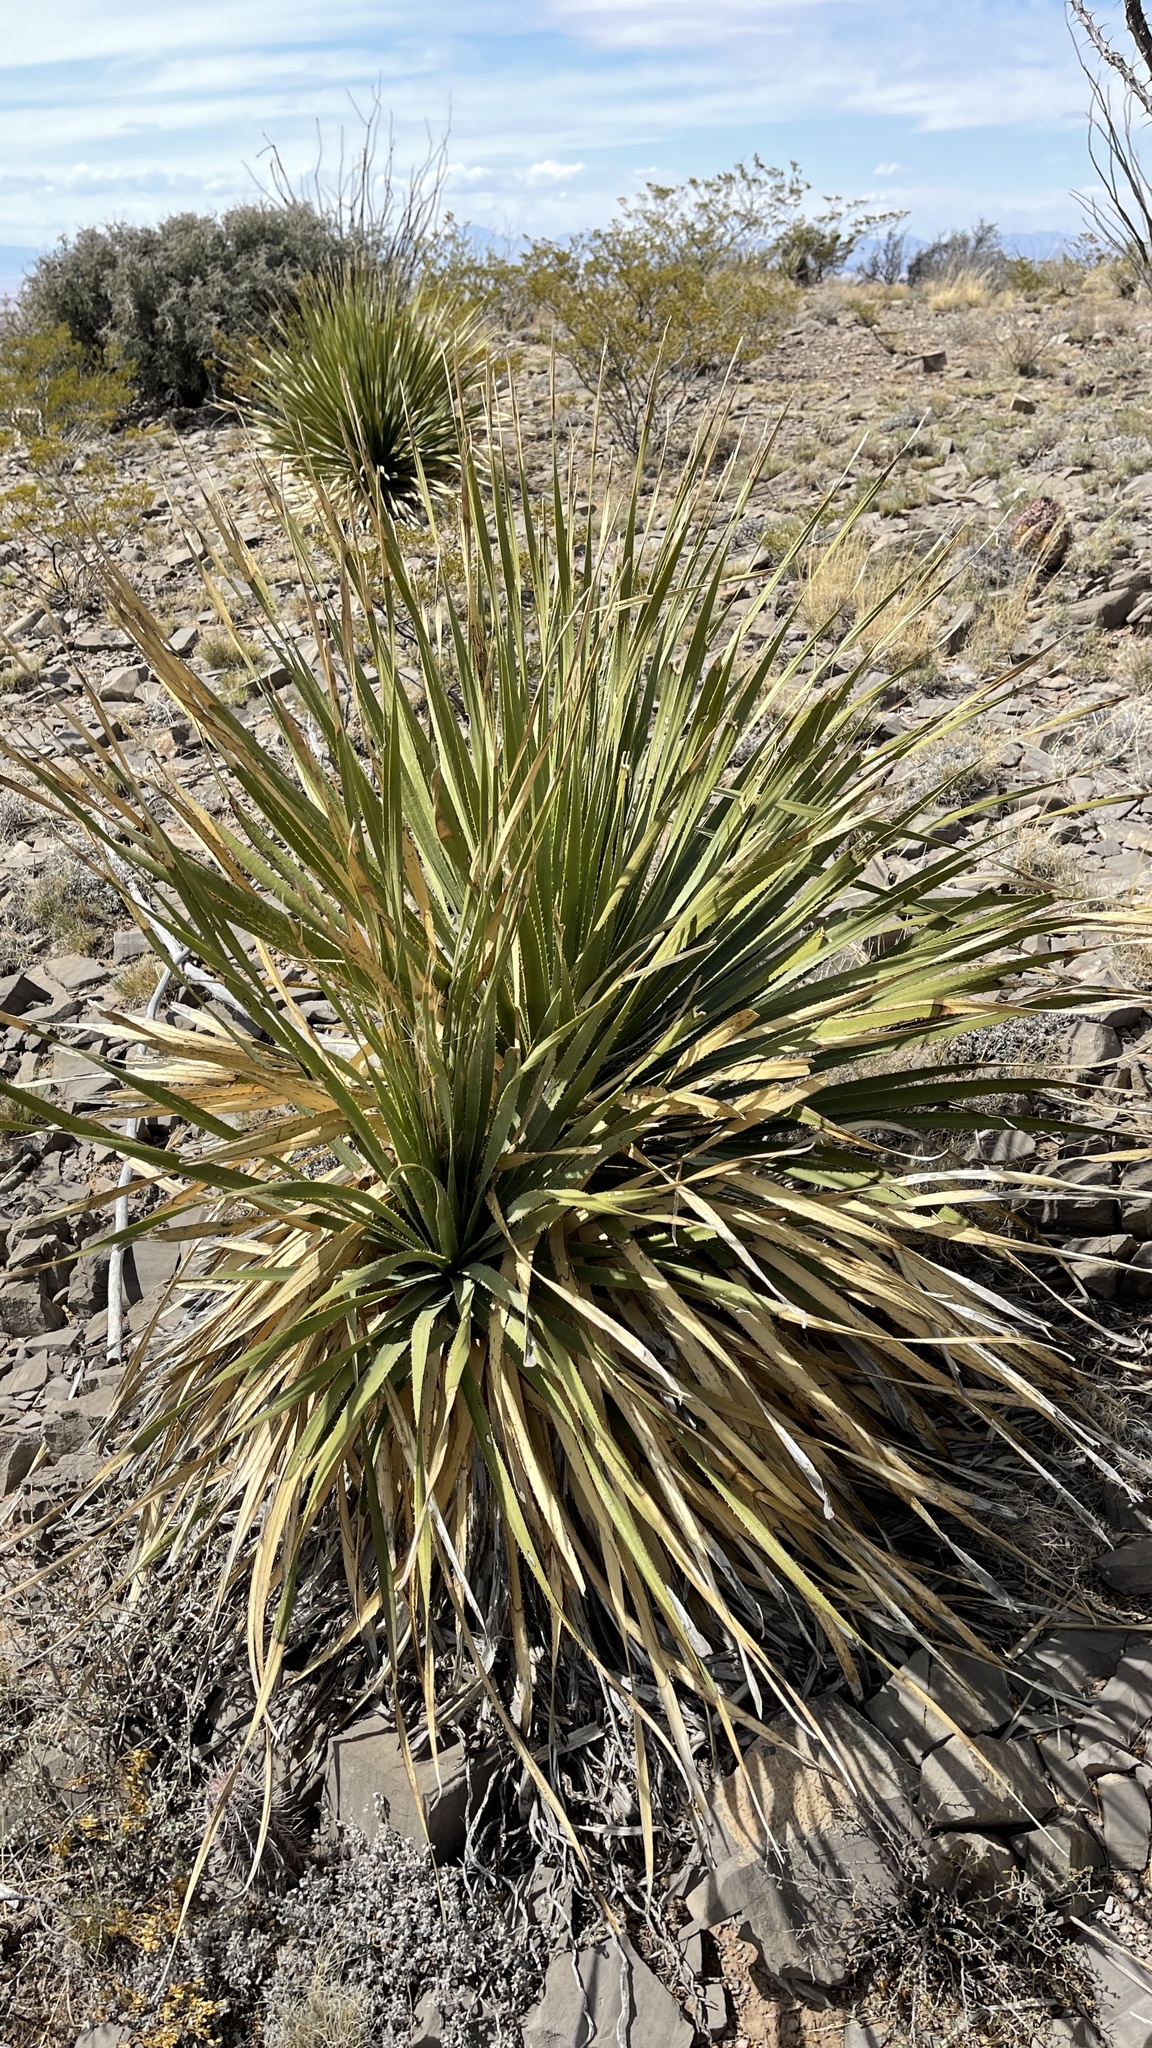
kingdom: Plantae
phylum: Tracheophyta
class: Liliopsida
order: Asparagales
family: Asparagaceae
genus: Dasylirion
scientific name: Dasylirion wheeleri
